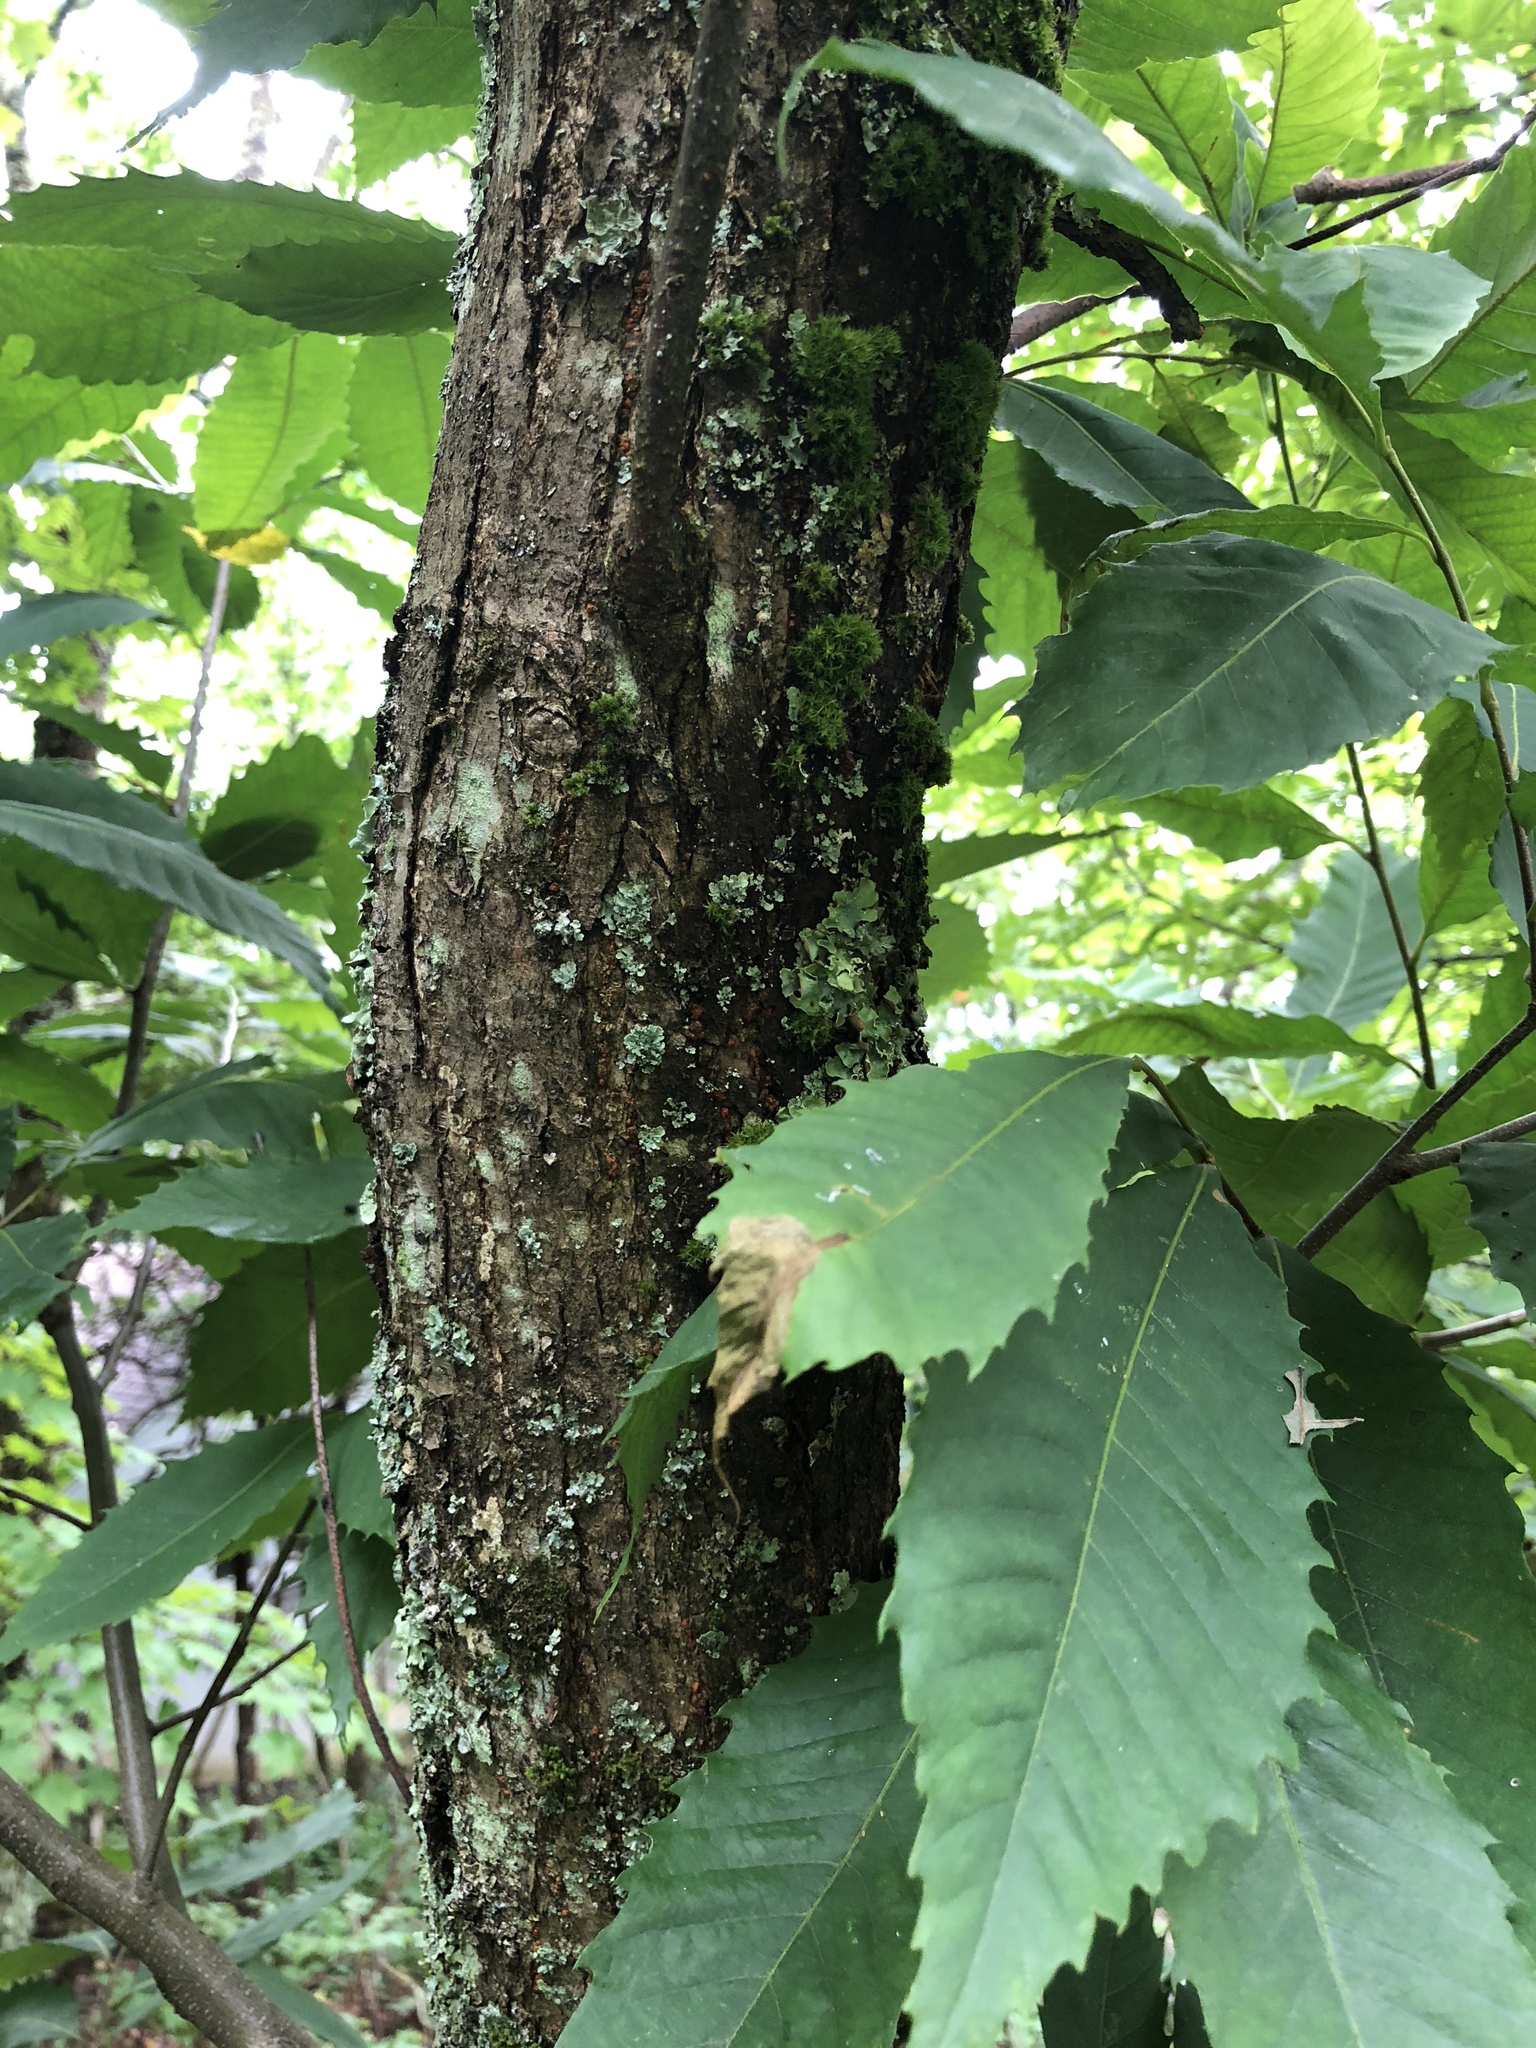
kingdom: Plantae
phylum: Tracheophyta
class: Magnoliopsida
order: Fagales
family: Fagaceae
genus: Castanea
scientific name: Castanea dentata
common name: American chestnut
